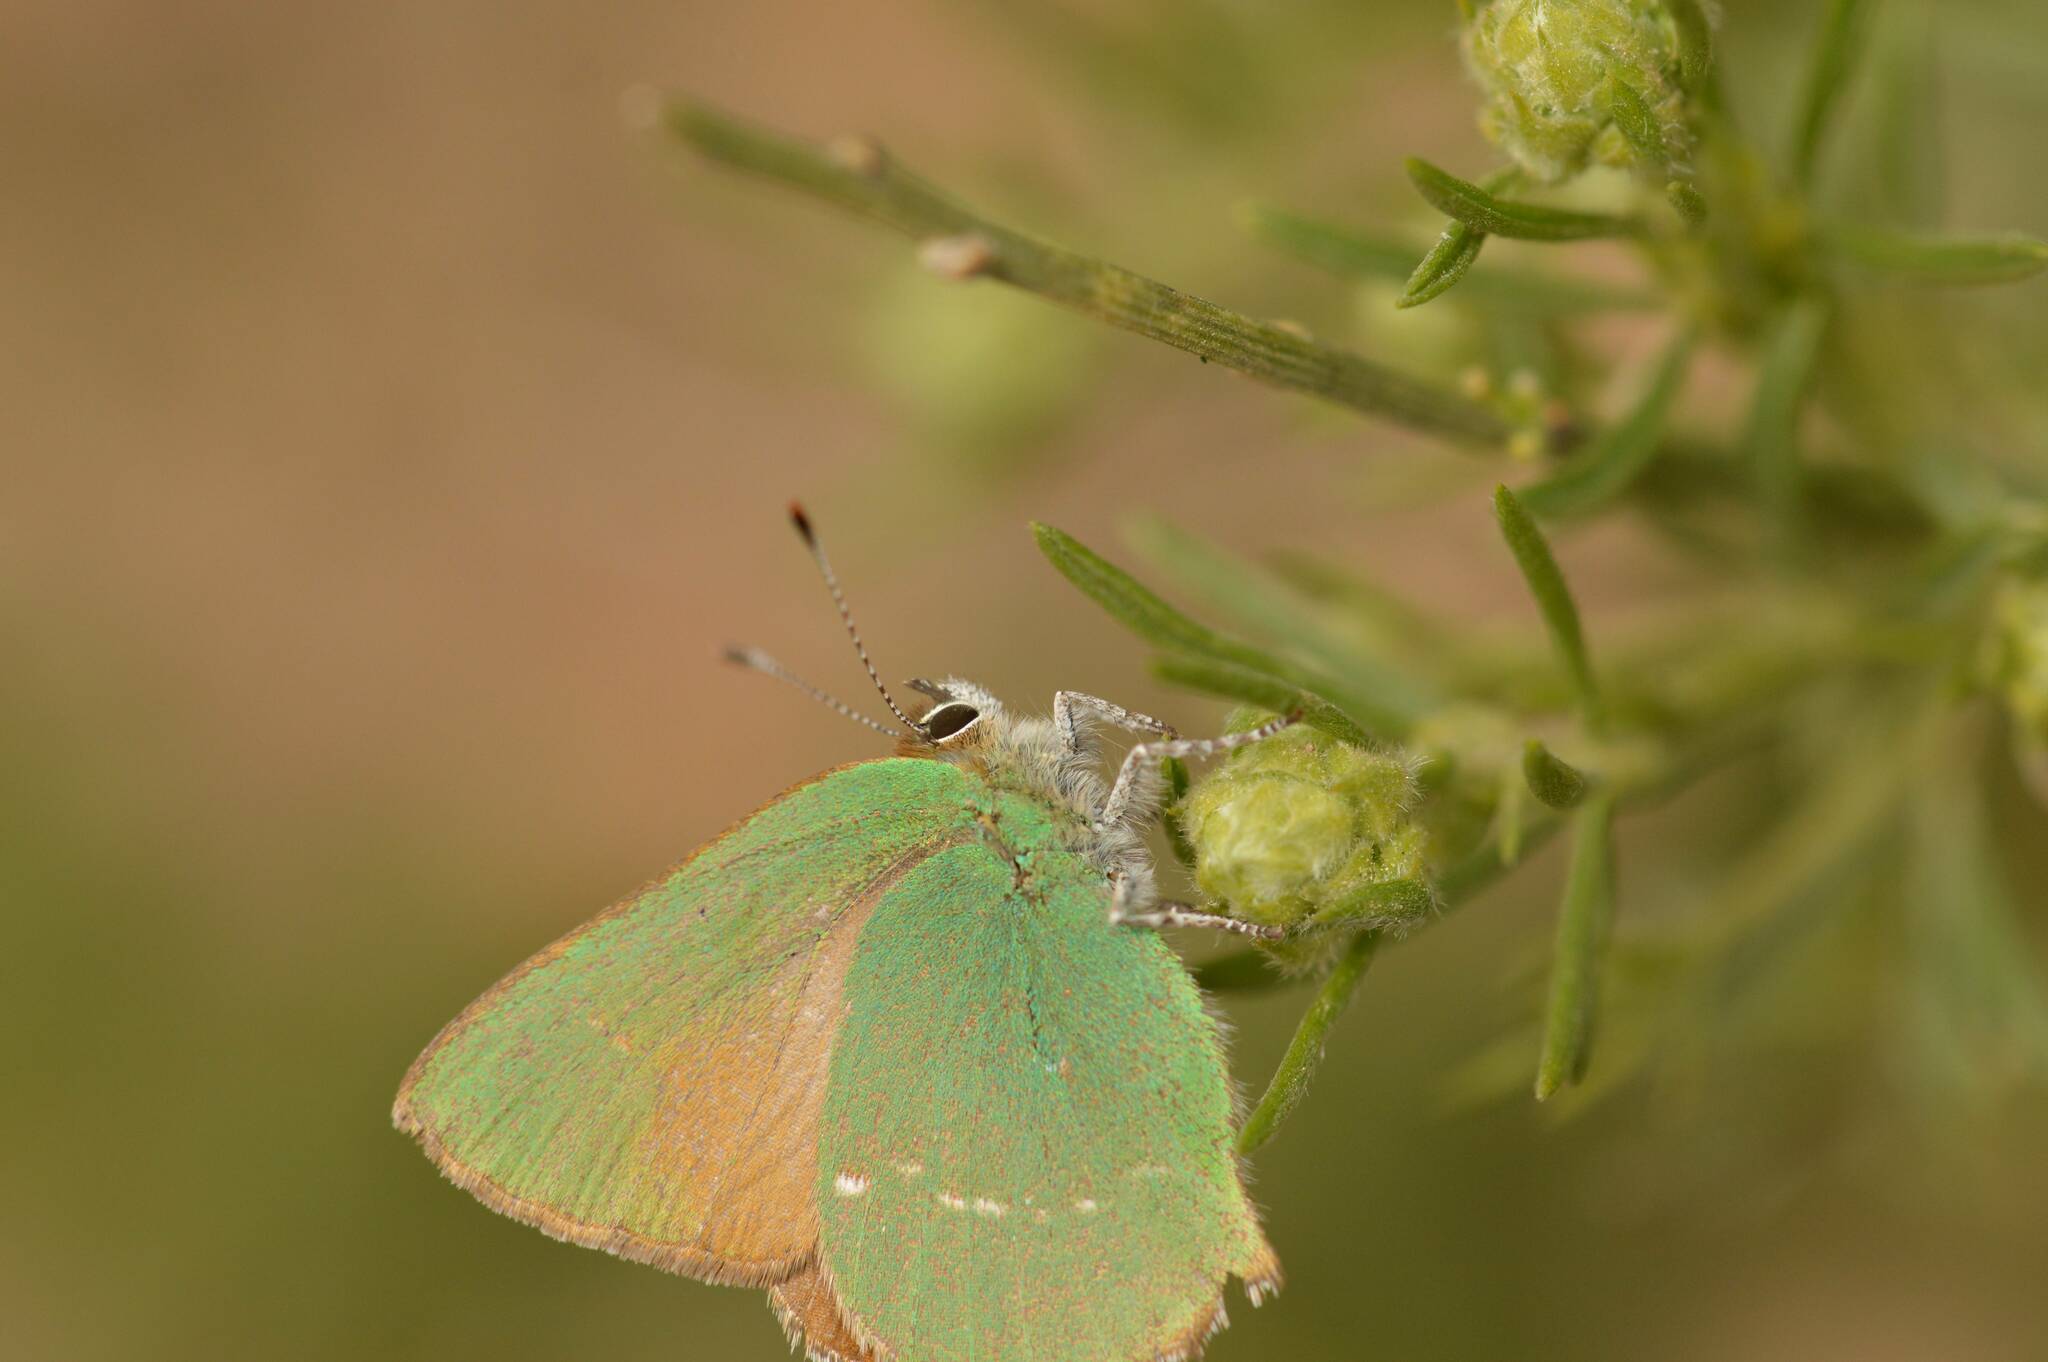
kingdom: Animalia
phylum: Arthropoda
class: Insecta
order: Lepidoptera
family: Lycaenidae
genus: Callophrys
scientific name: Callophrys rubi
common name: Green hairstreak
